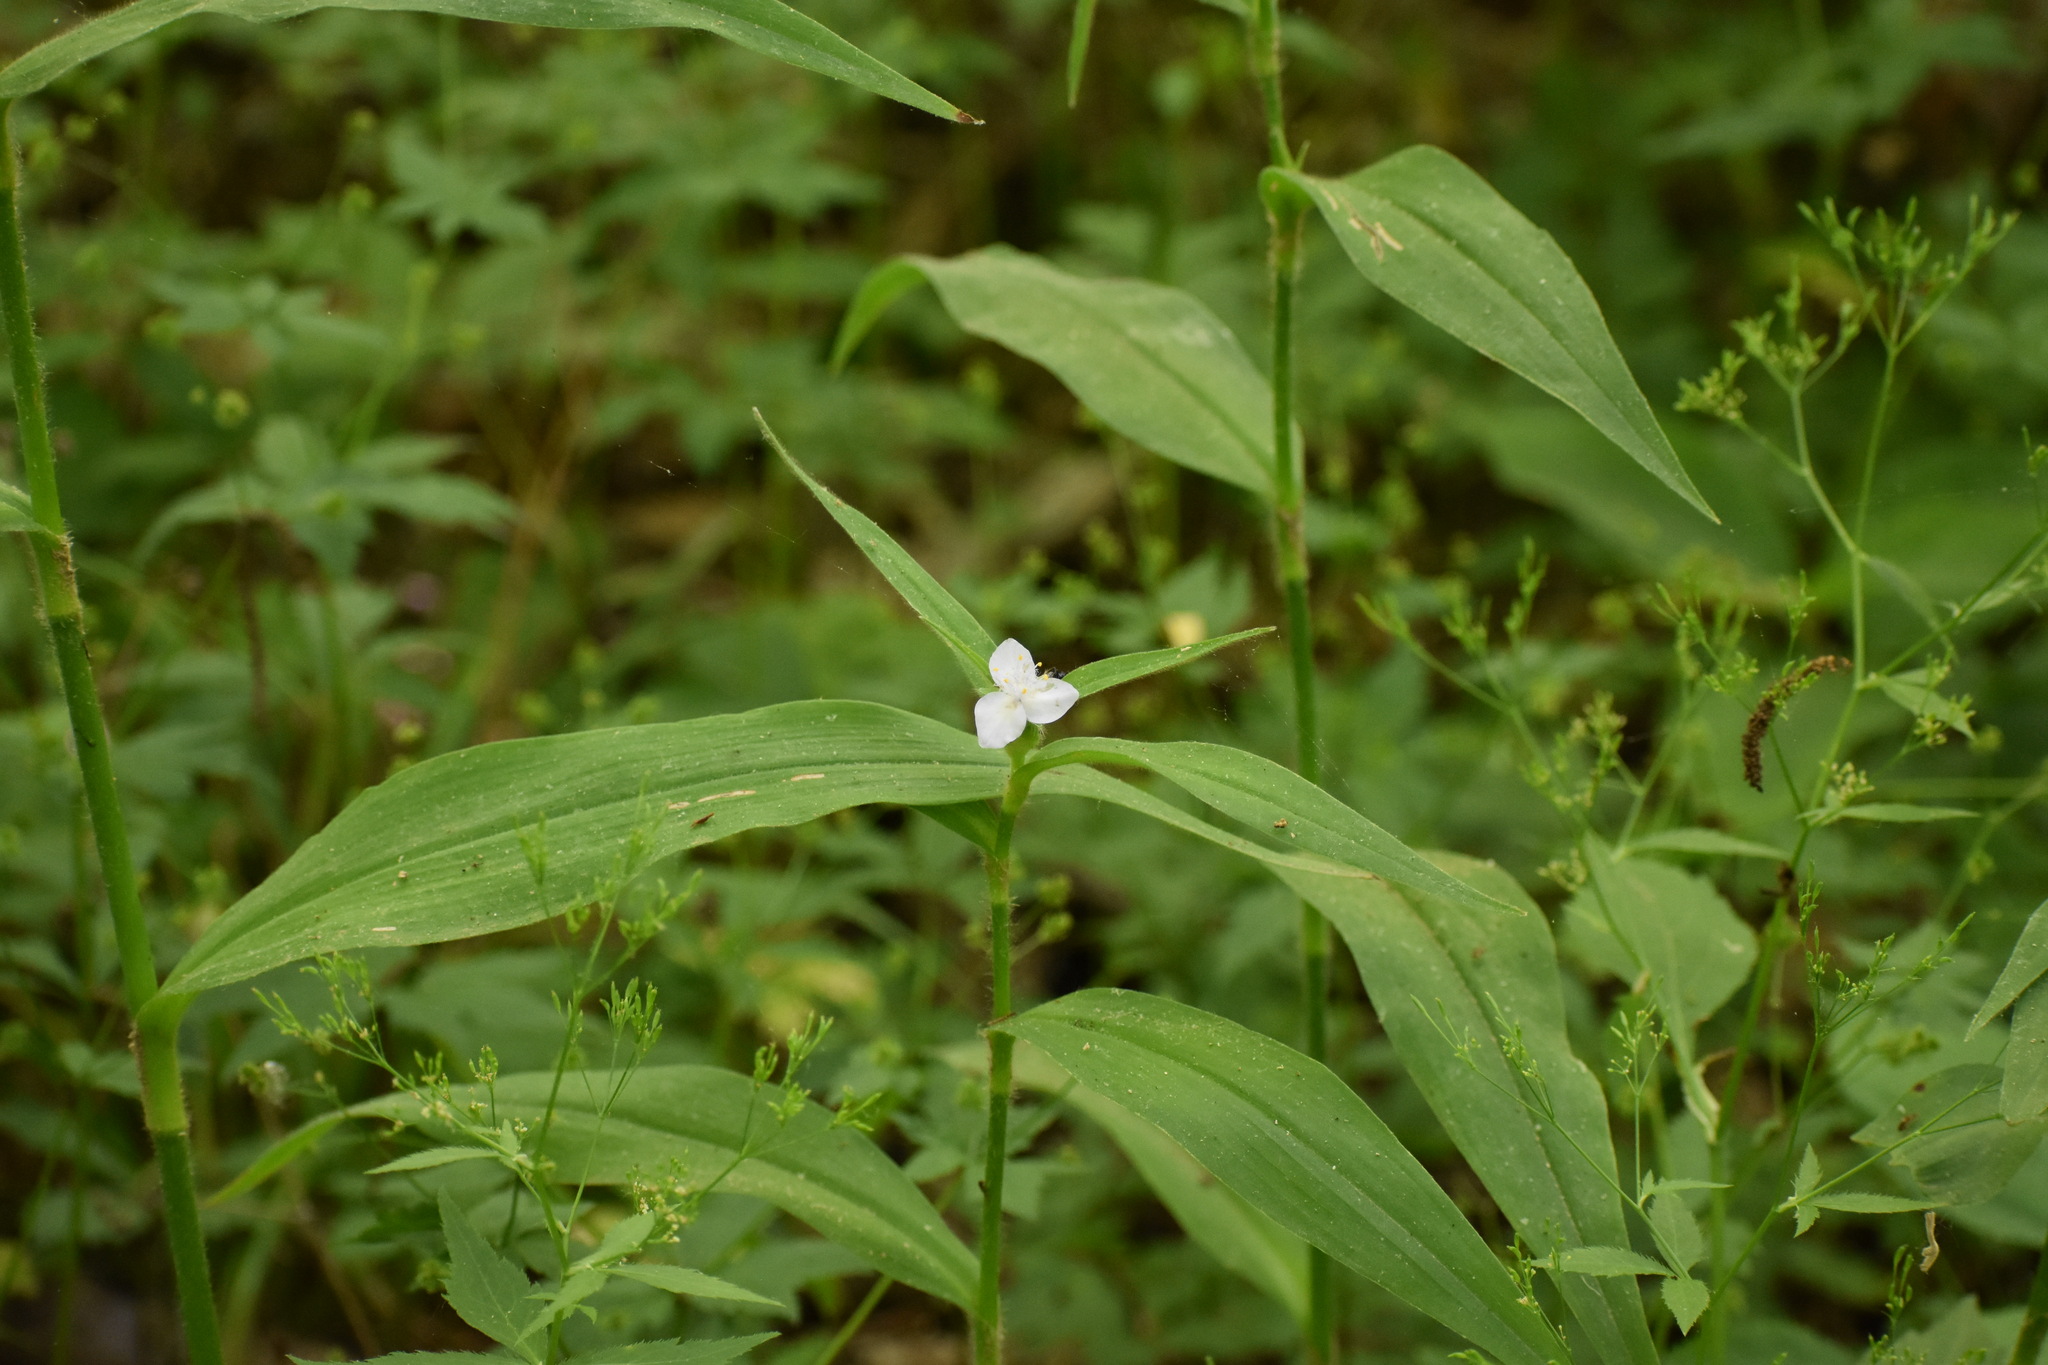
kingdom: Plantae
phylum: Tracheophyta
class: Liliopsida
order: Commelinales
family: Commelinaceae
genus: Tradescantia
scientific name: Tradescantia subaspera
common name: Wide-leaf spiderwort
